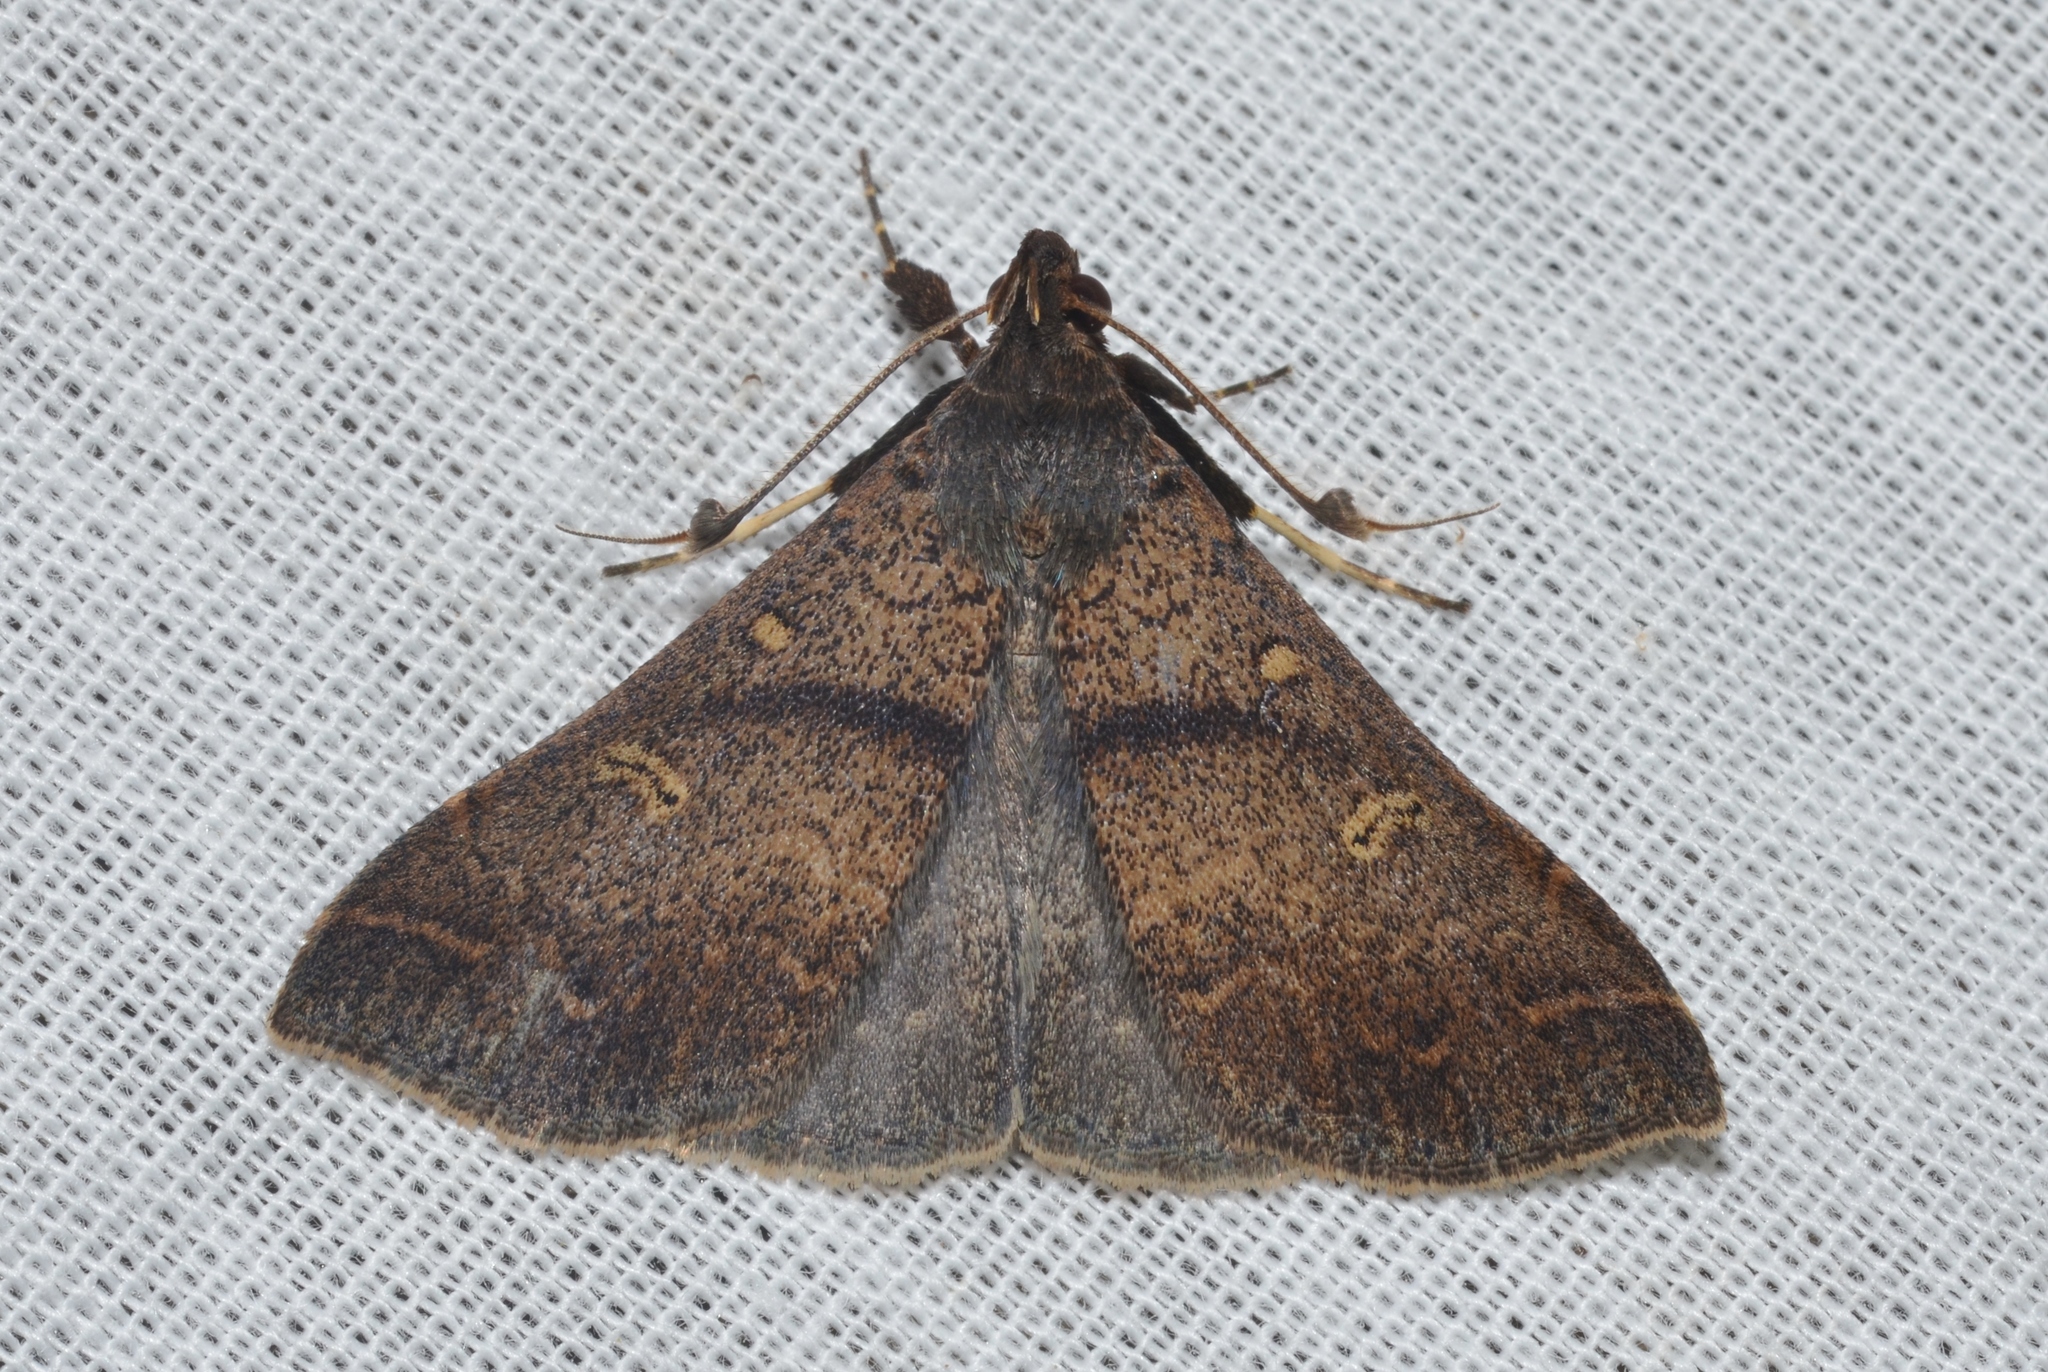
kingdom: Animalia
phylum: Arthropoda
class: Insecta
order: Lepidoptera
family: Erebidae
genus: Renia
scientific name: Renia discoloralis
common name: Discolored renia moth
